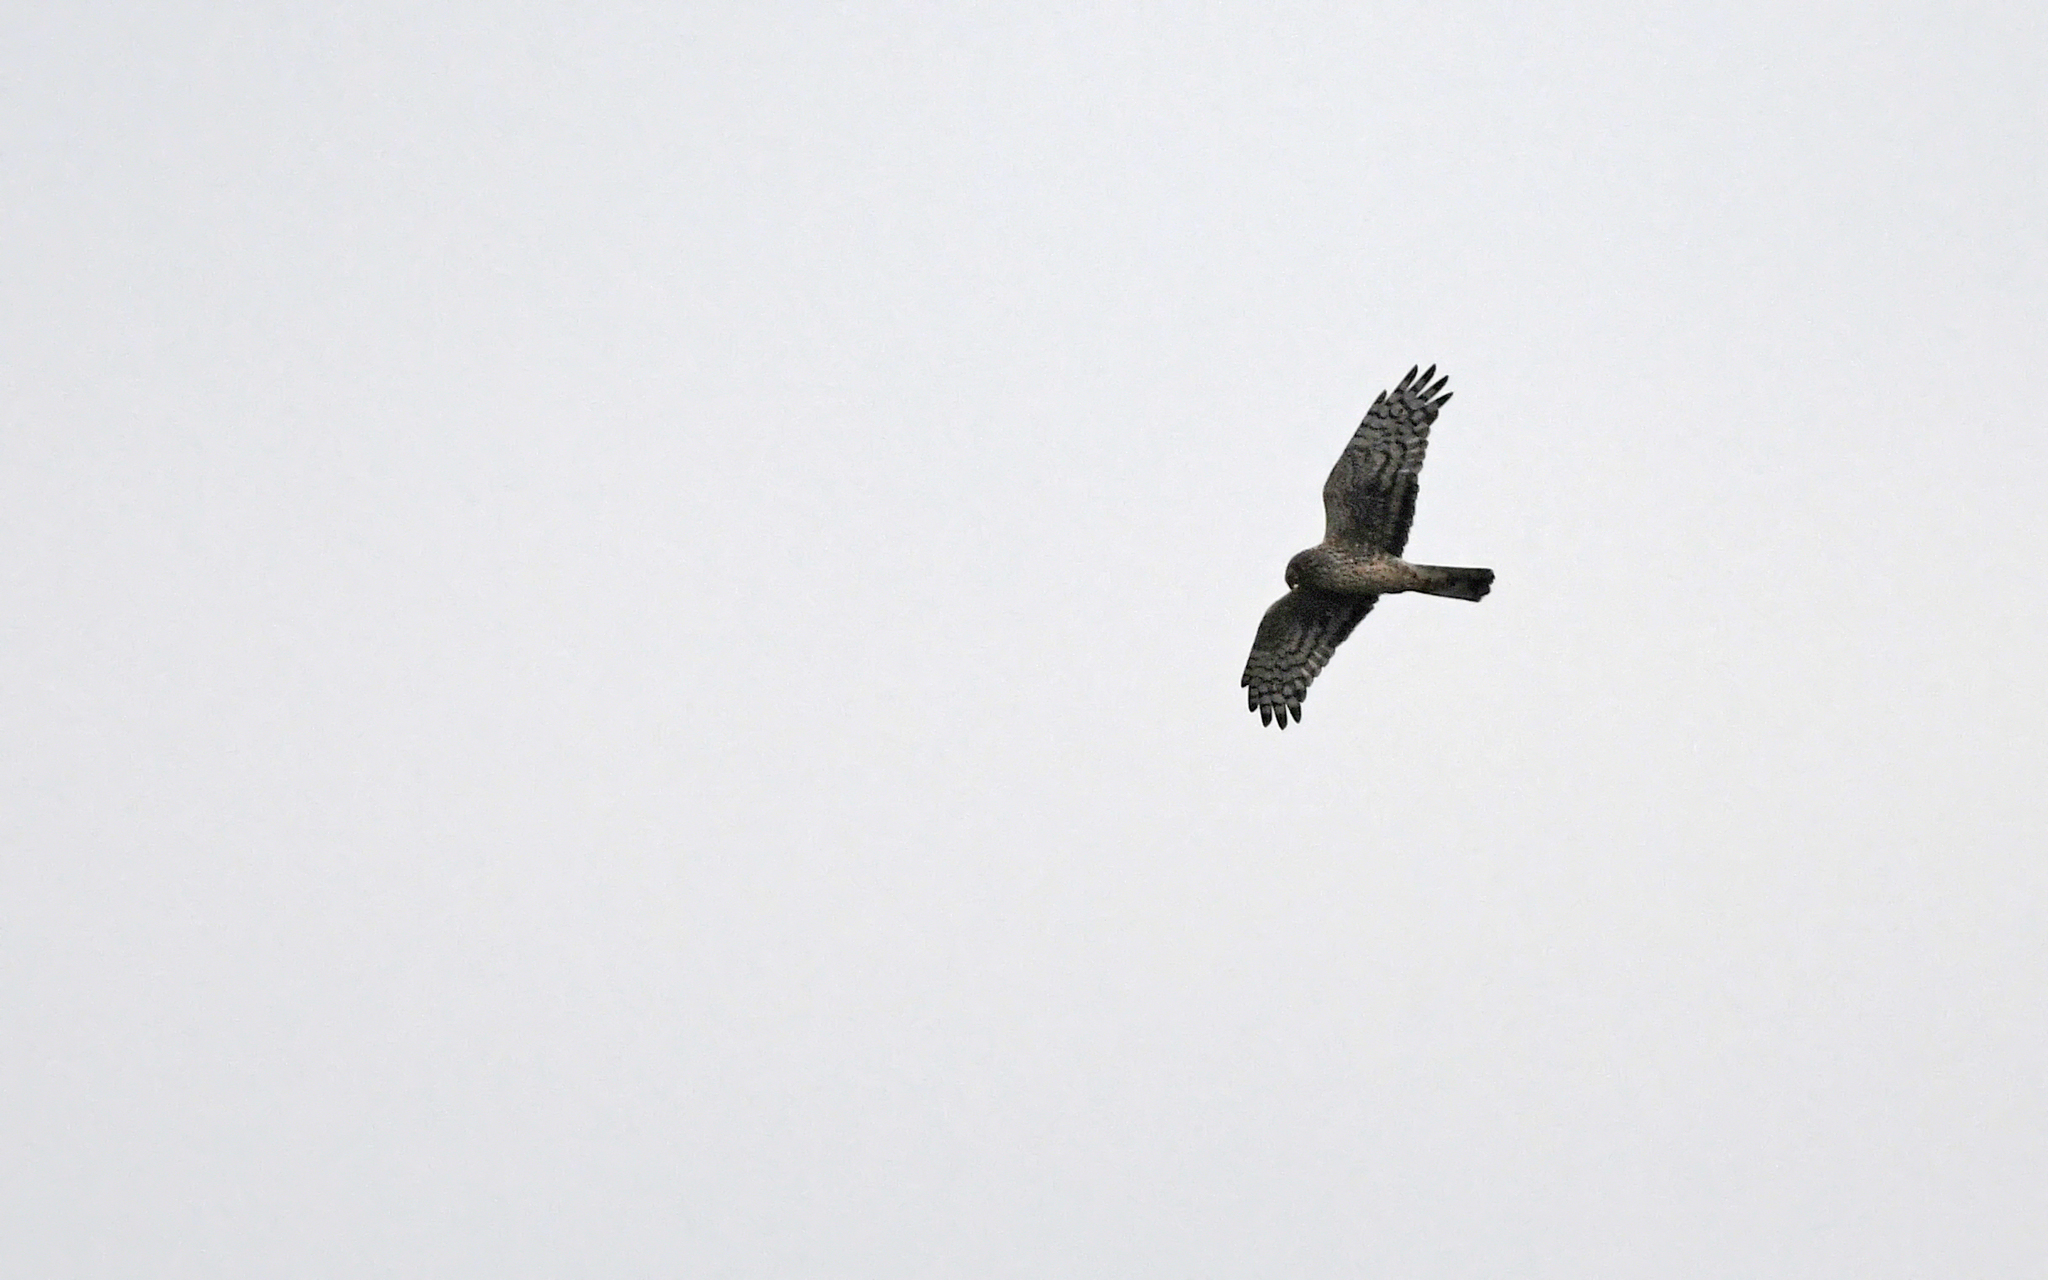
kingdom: Animalia
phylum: Chordata
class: Aves
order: Accipitriformes
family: Accipitridae
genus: Circus
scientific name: Circus cyaneus
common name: Hen harrier
